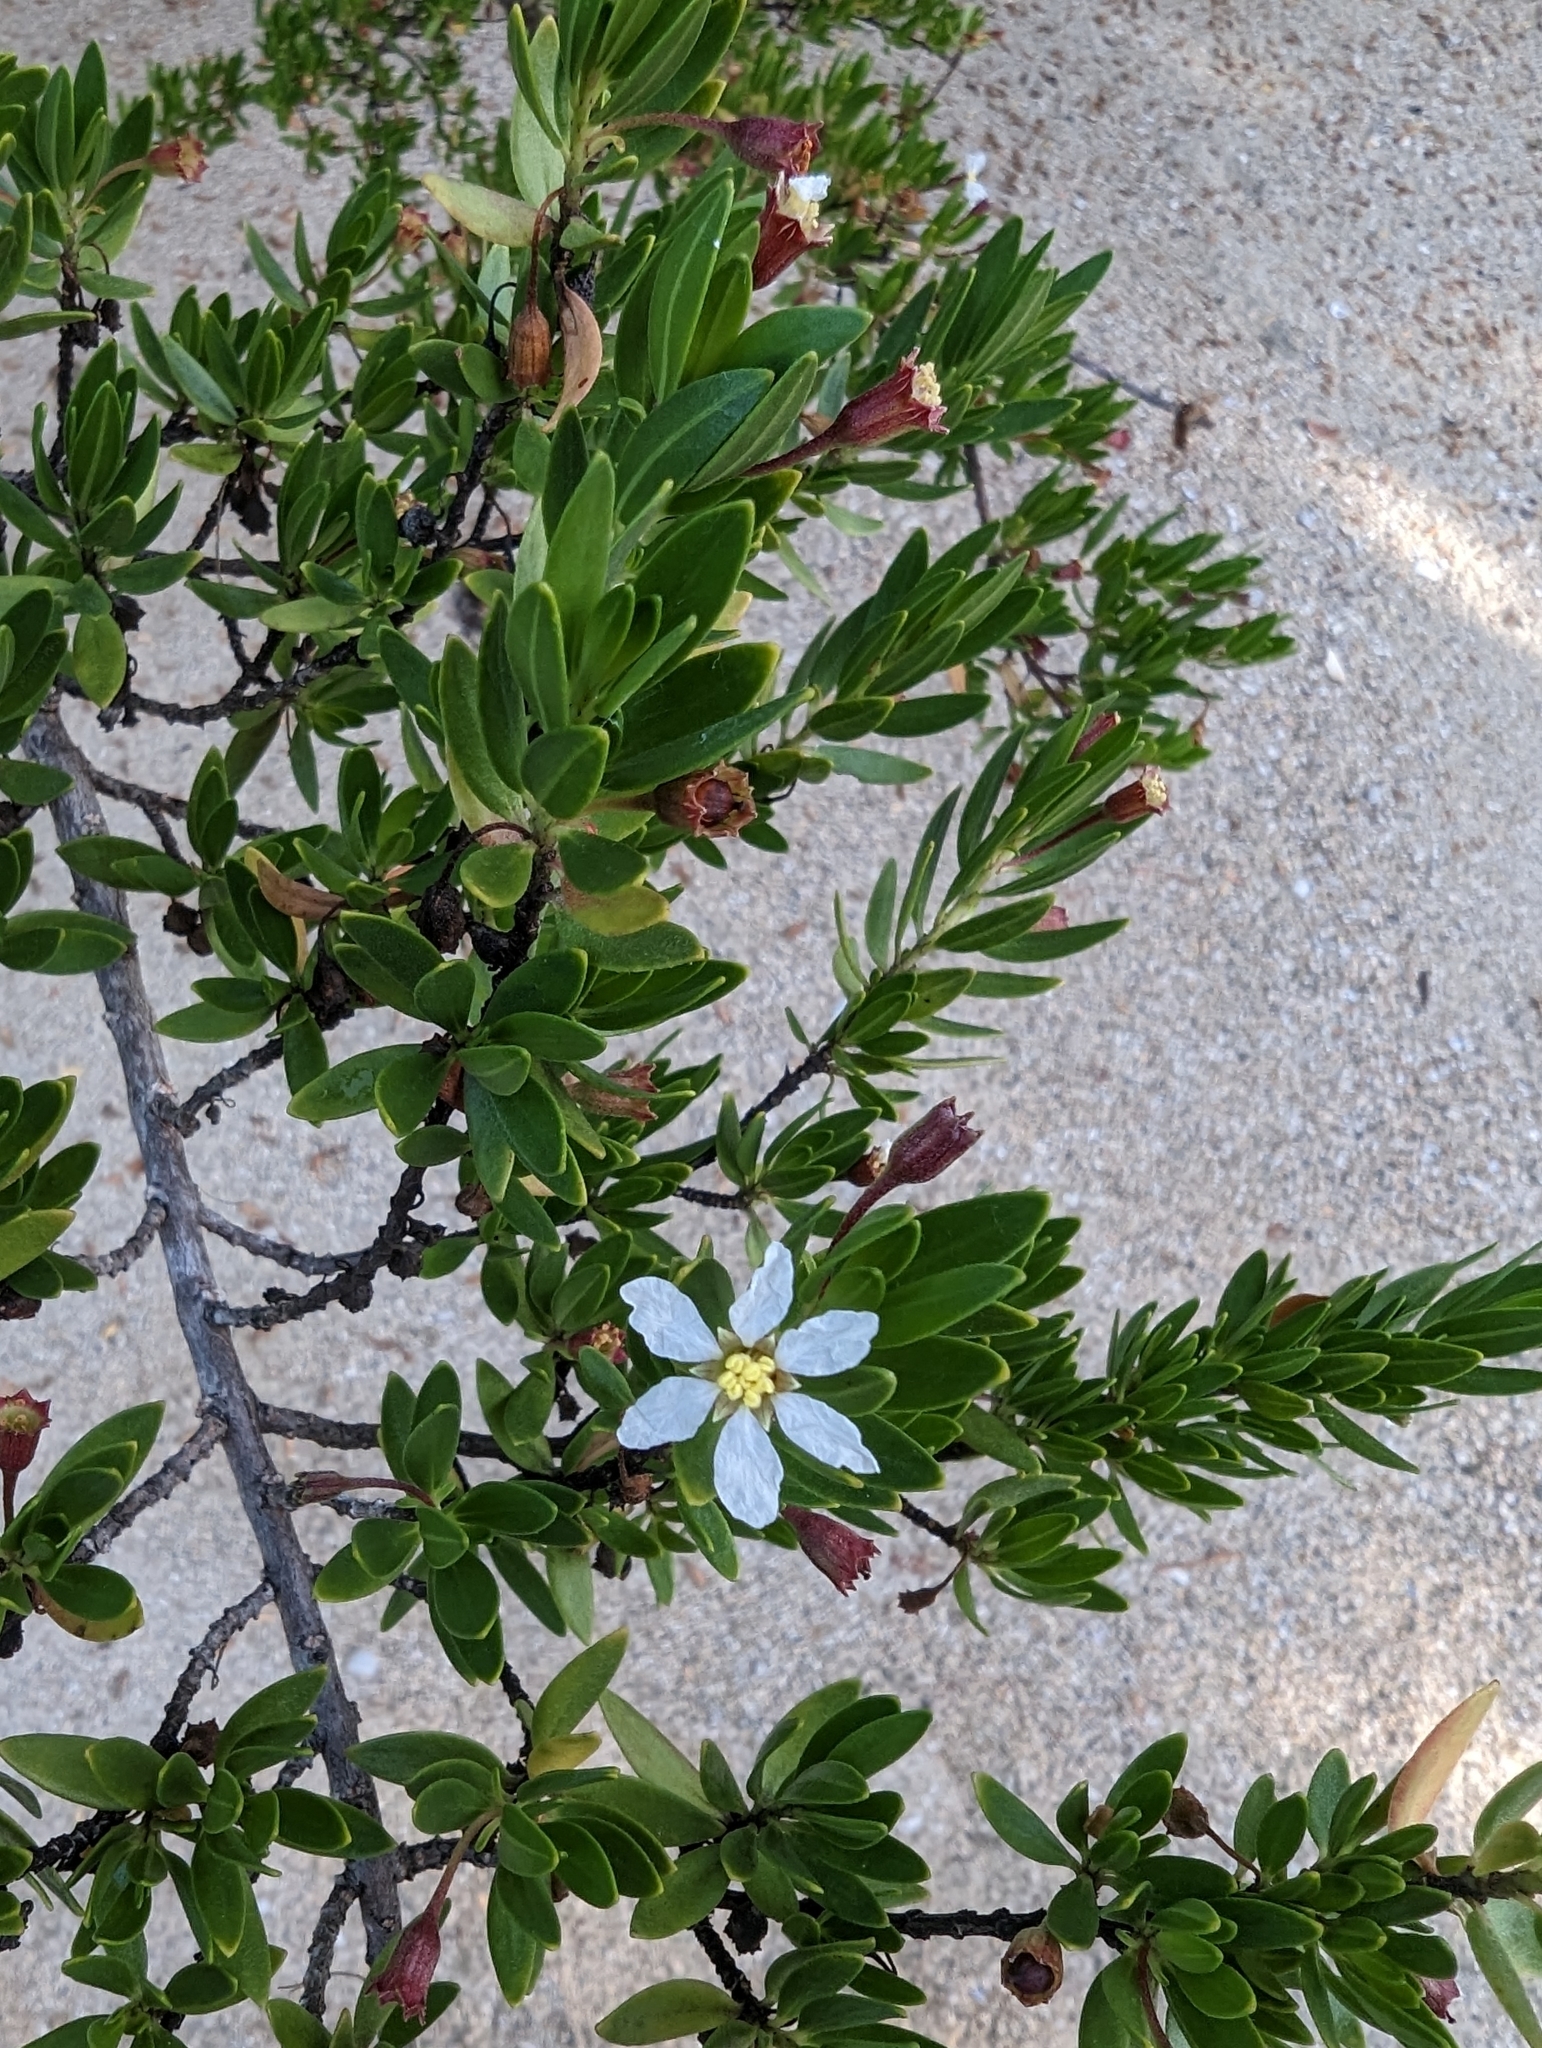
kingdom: Plantae
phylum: Tracheophyta
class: Magnoliopsida
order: Myrtales
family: Lythraceae
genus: Pemphis
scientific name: Pemphis acidula
